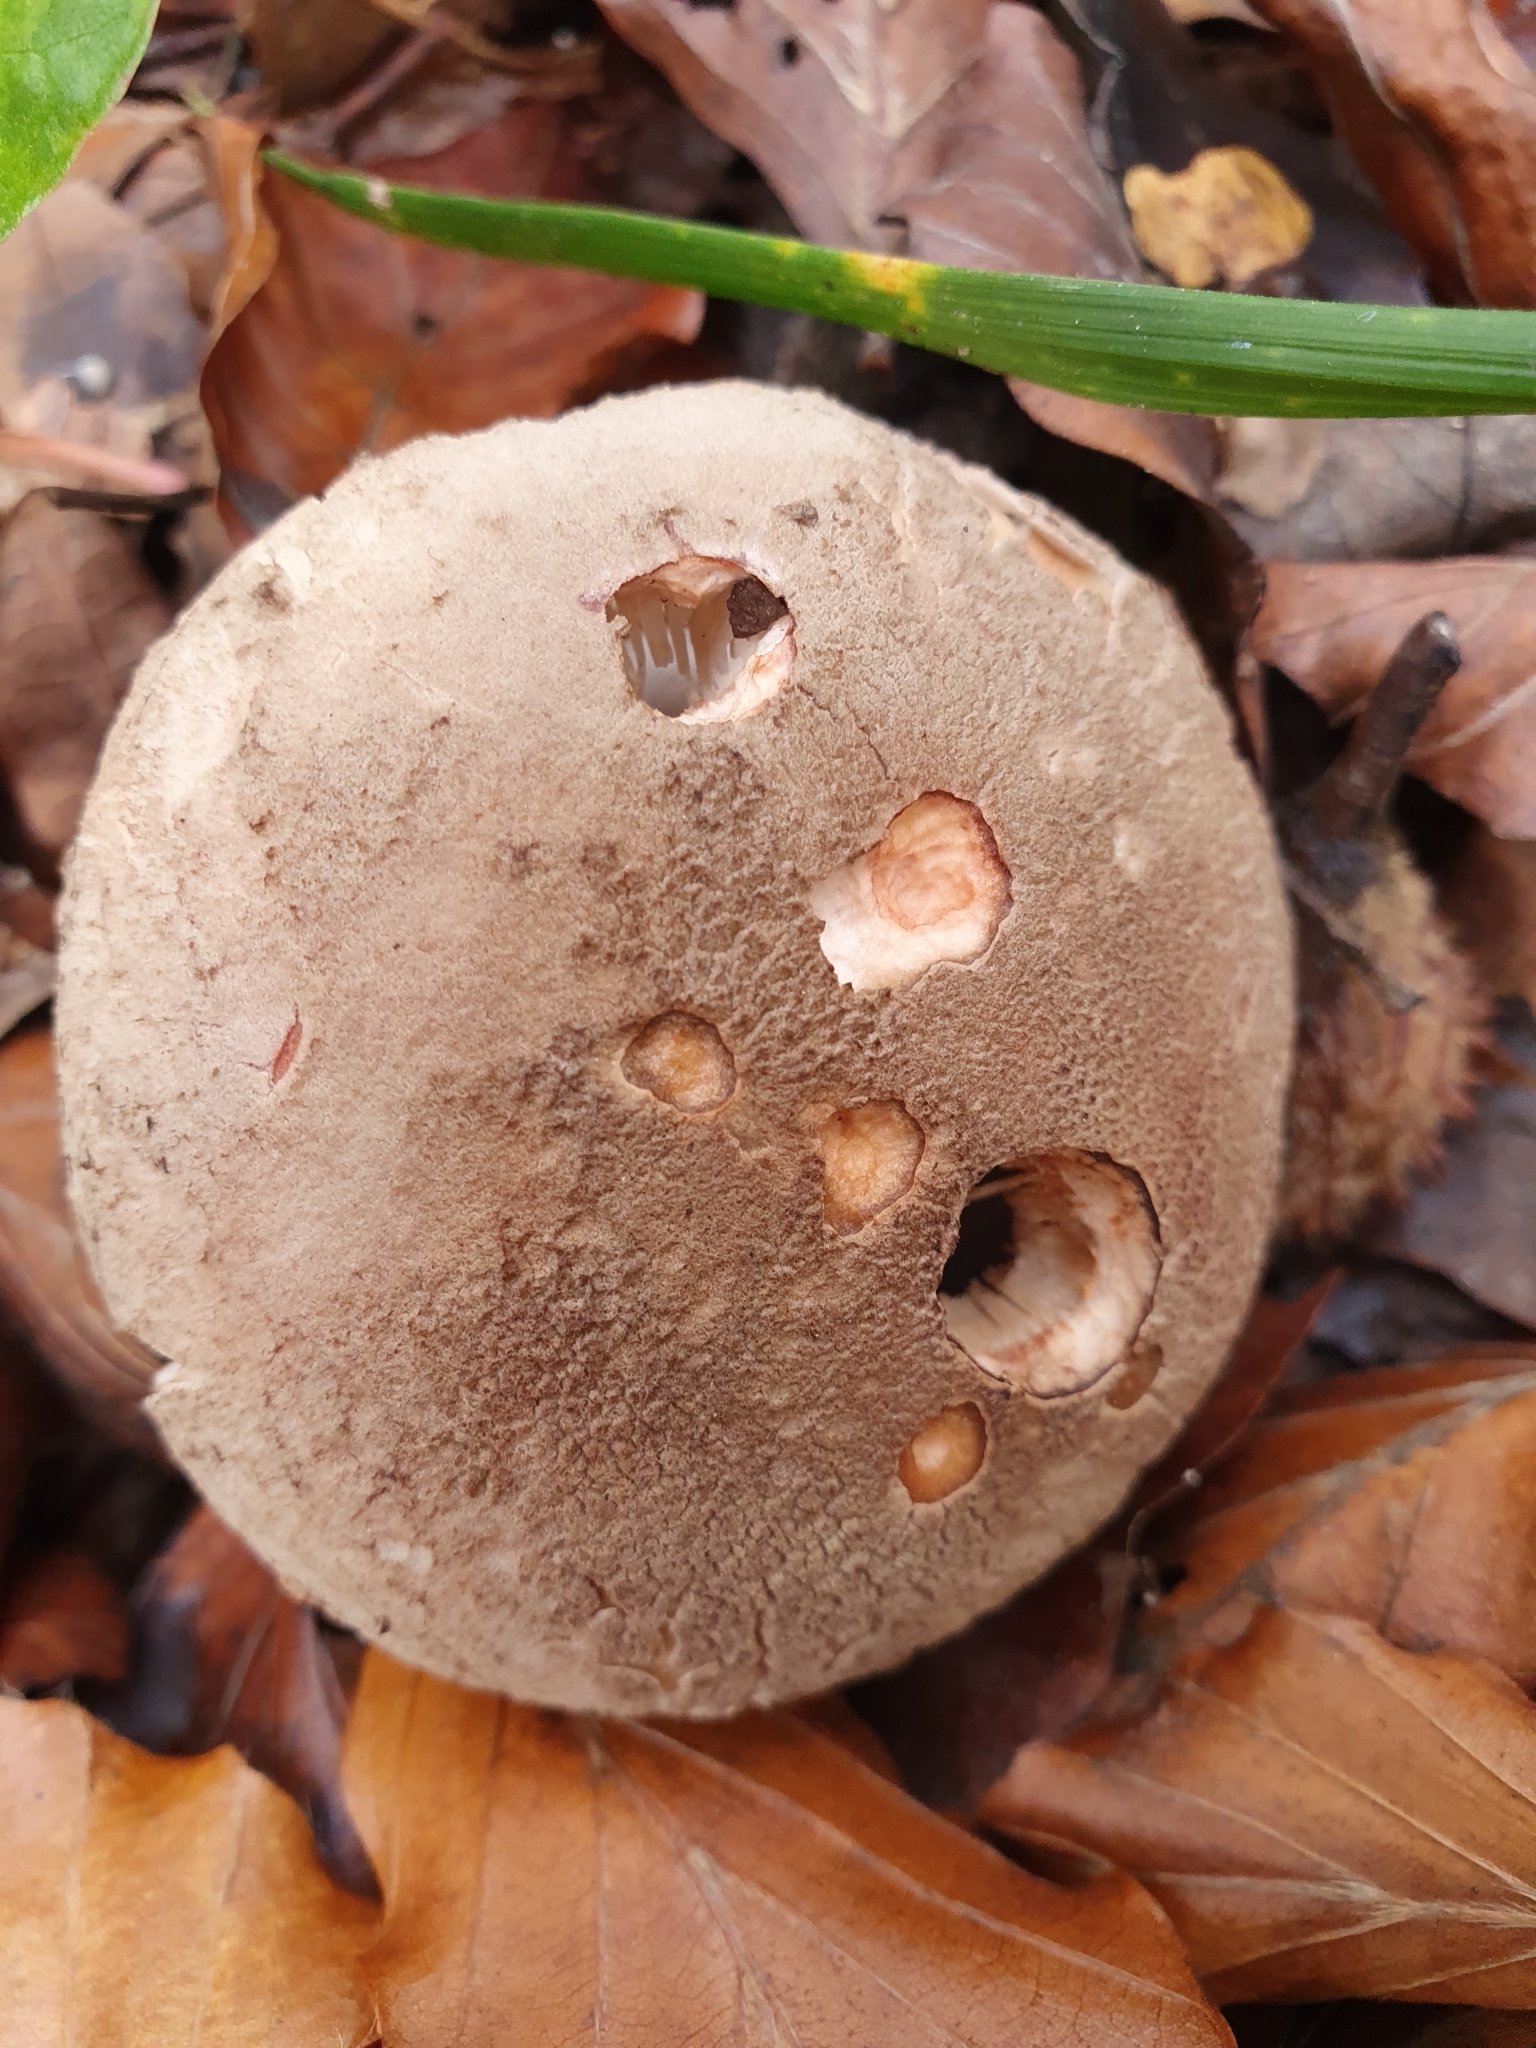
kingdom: Fungi
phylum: Basidiomycota
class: Agaricomycetes
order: Agaricales
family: Amanitaceae
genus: Amanita
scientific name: Amanita rubescens
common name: Blusher
